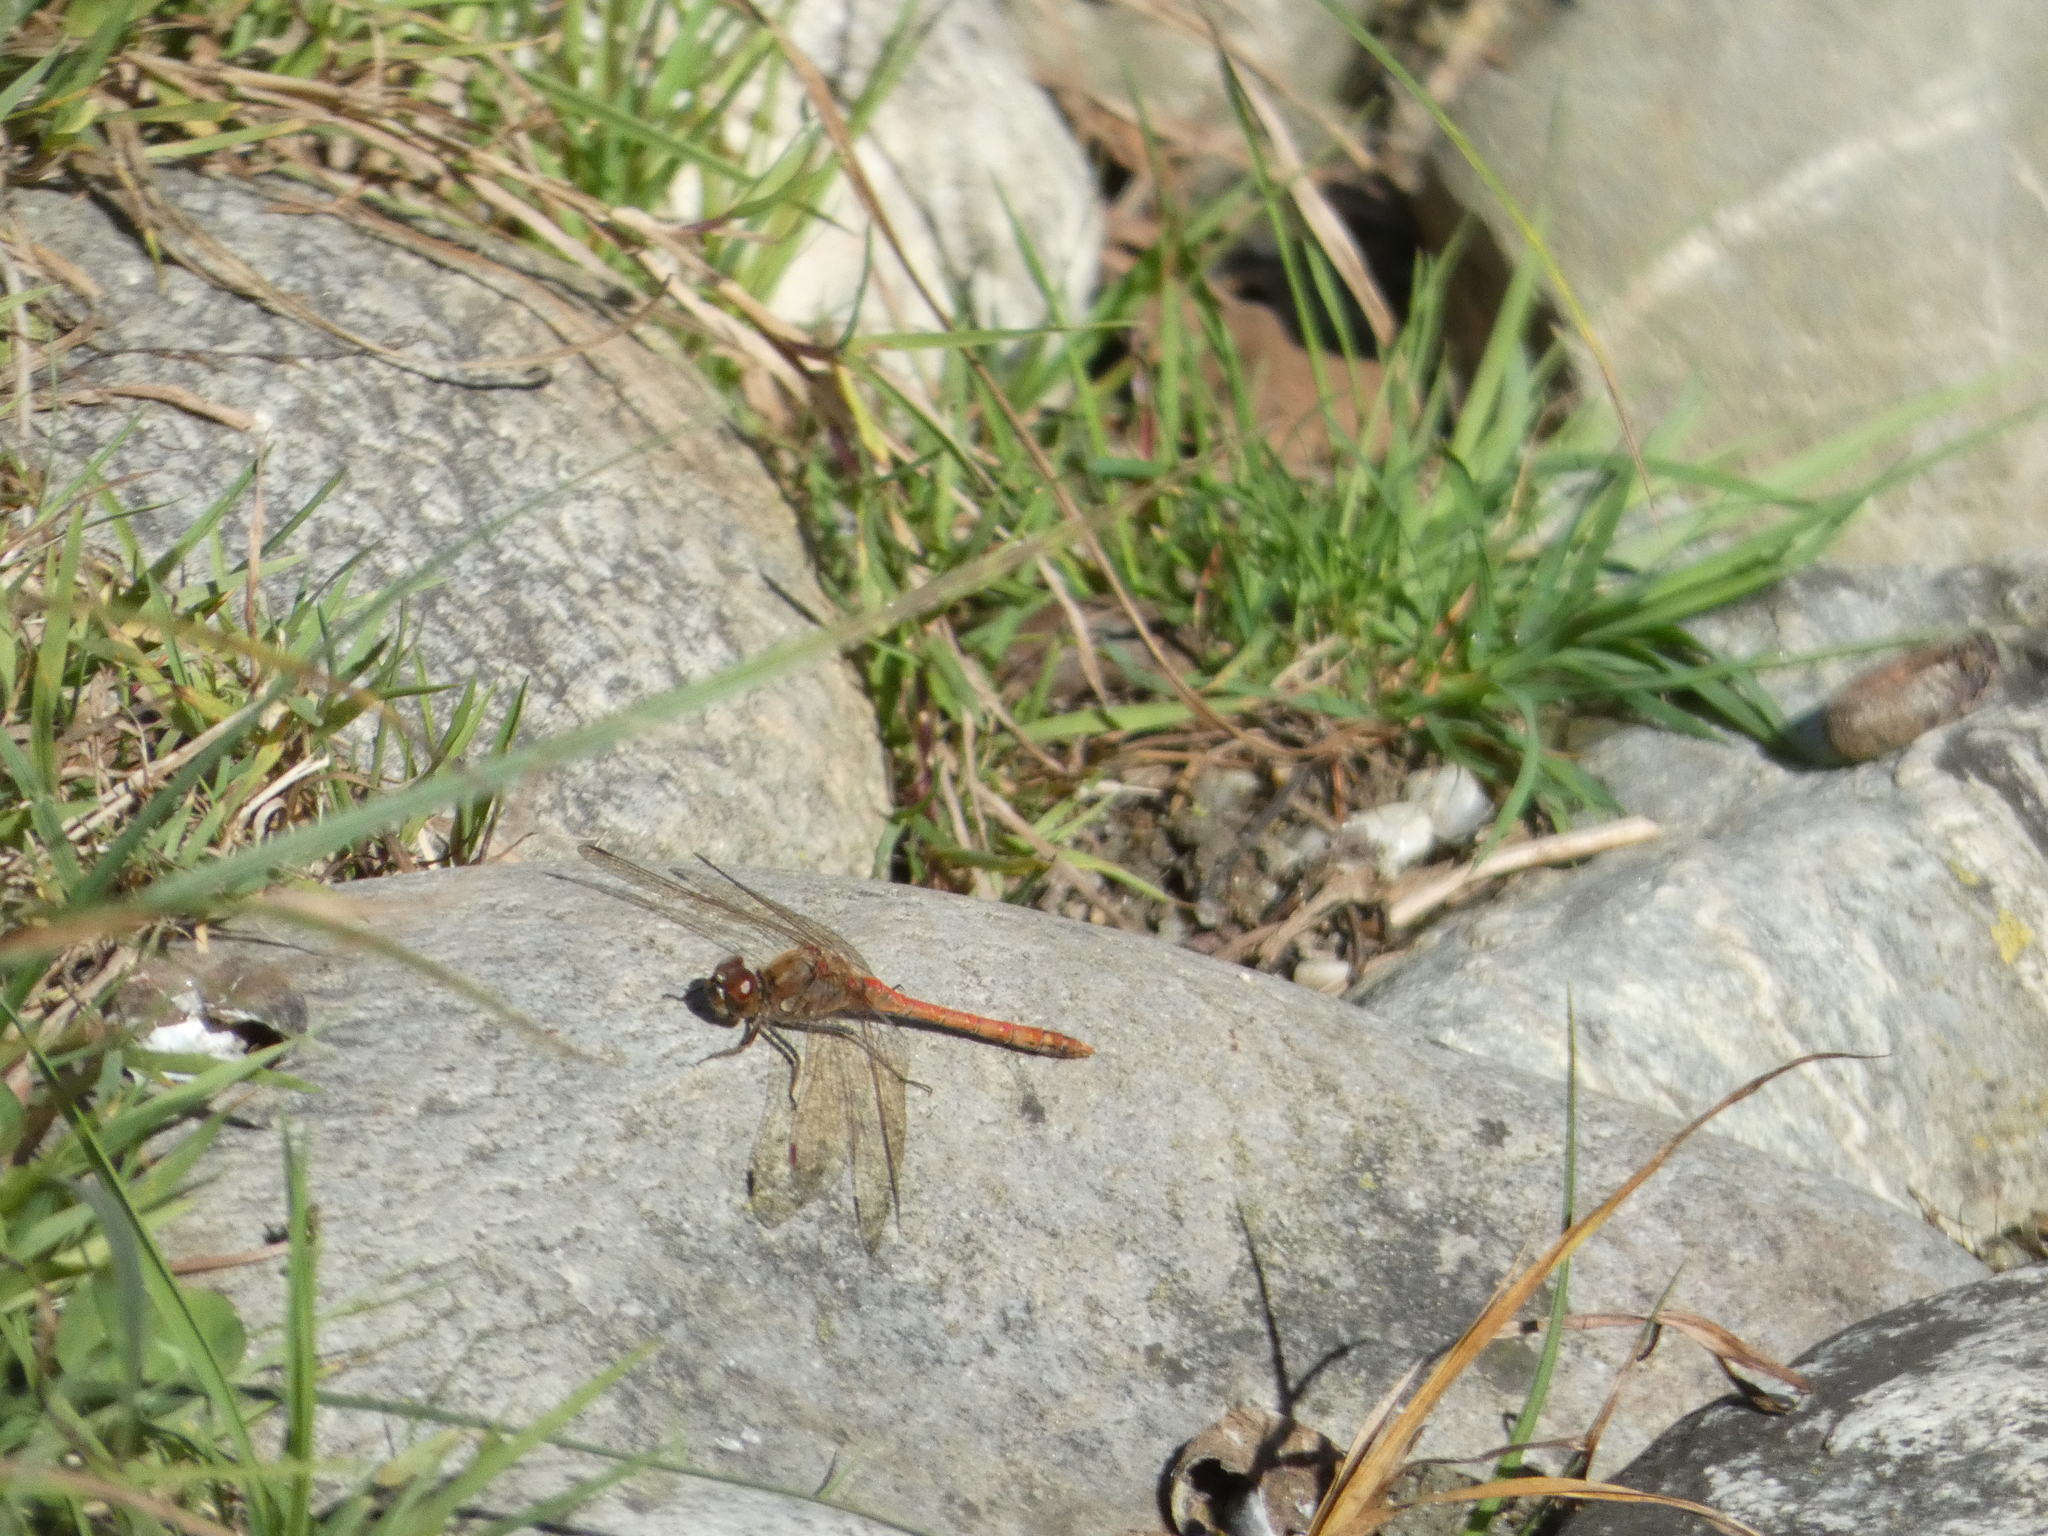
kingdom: Animalia
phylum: Arthropoda
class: Insecta
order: Odonata
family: Libellulidae
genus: Sympetrum
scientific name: Sympetrum striolatum
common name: Common darter
